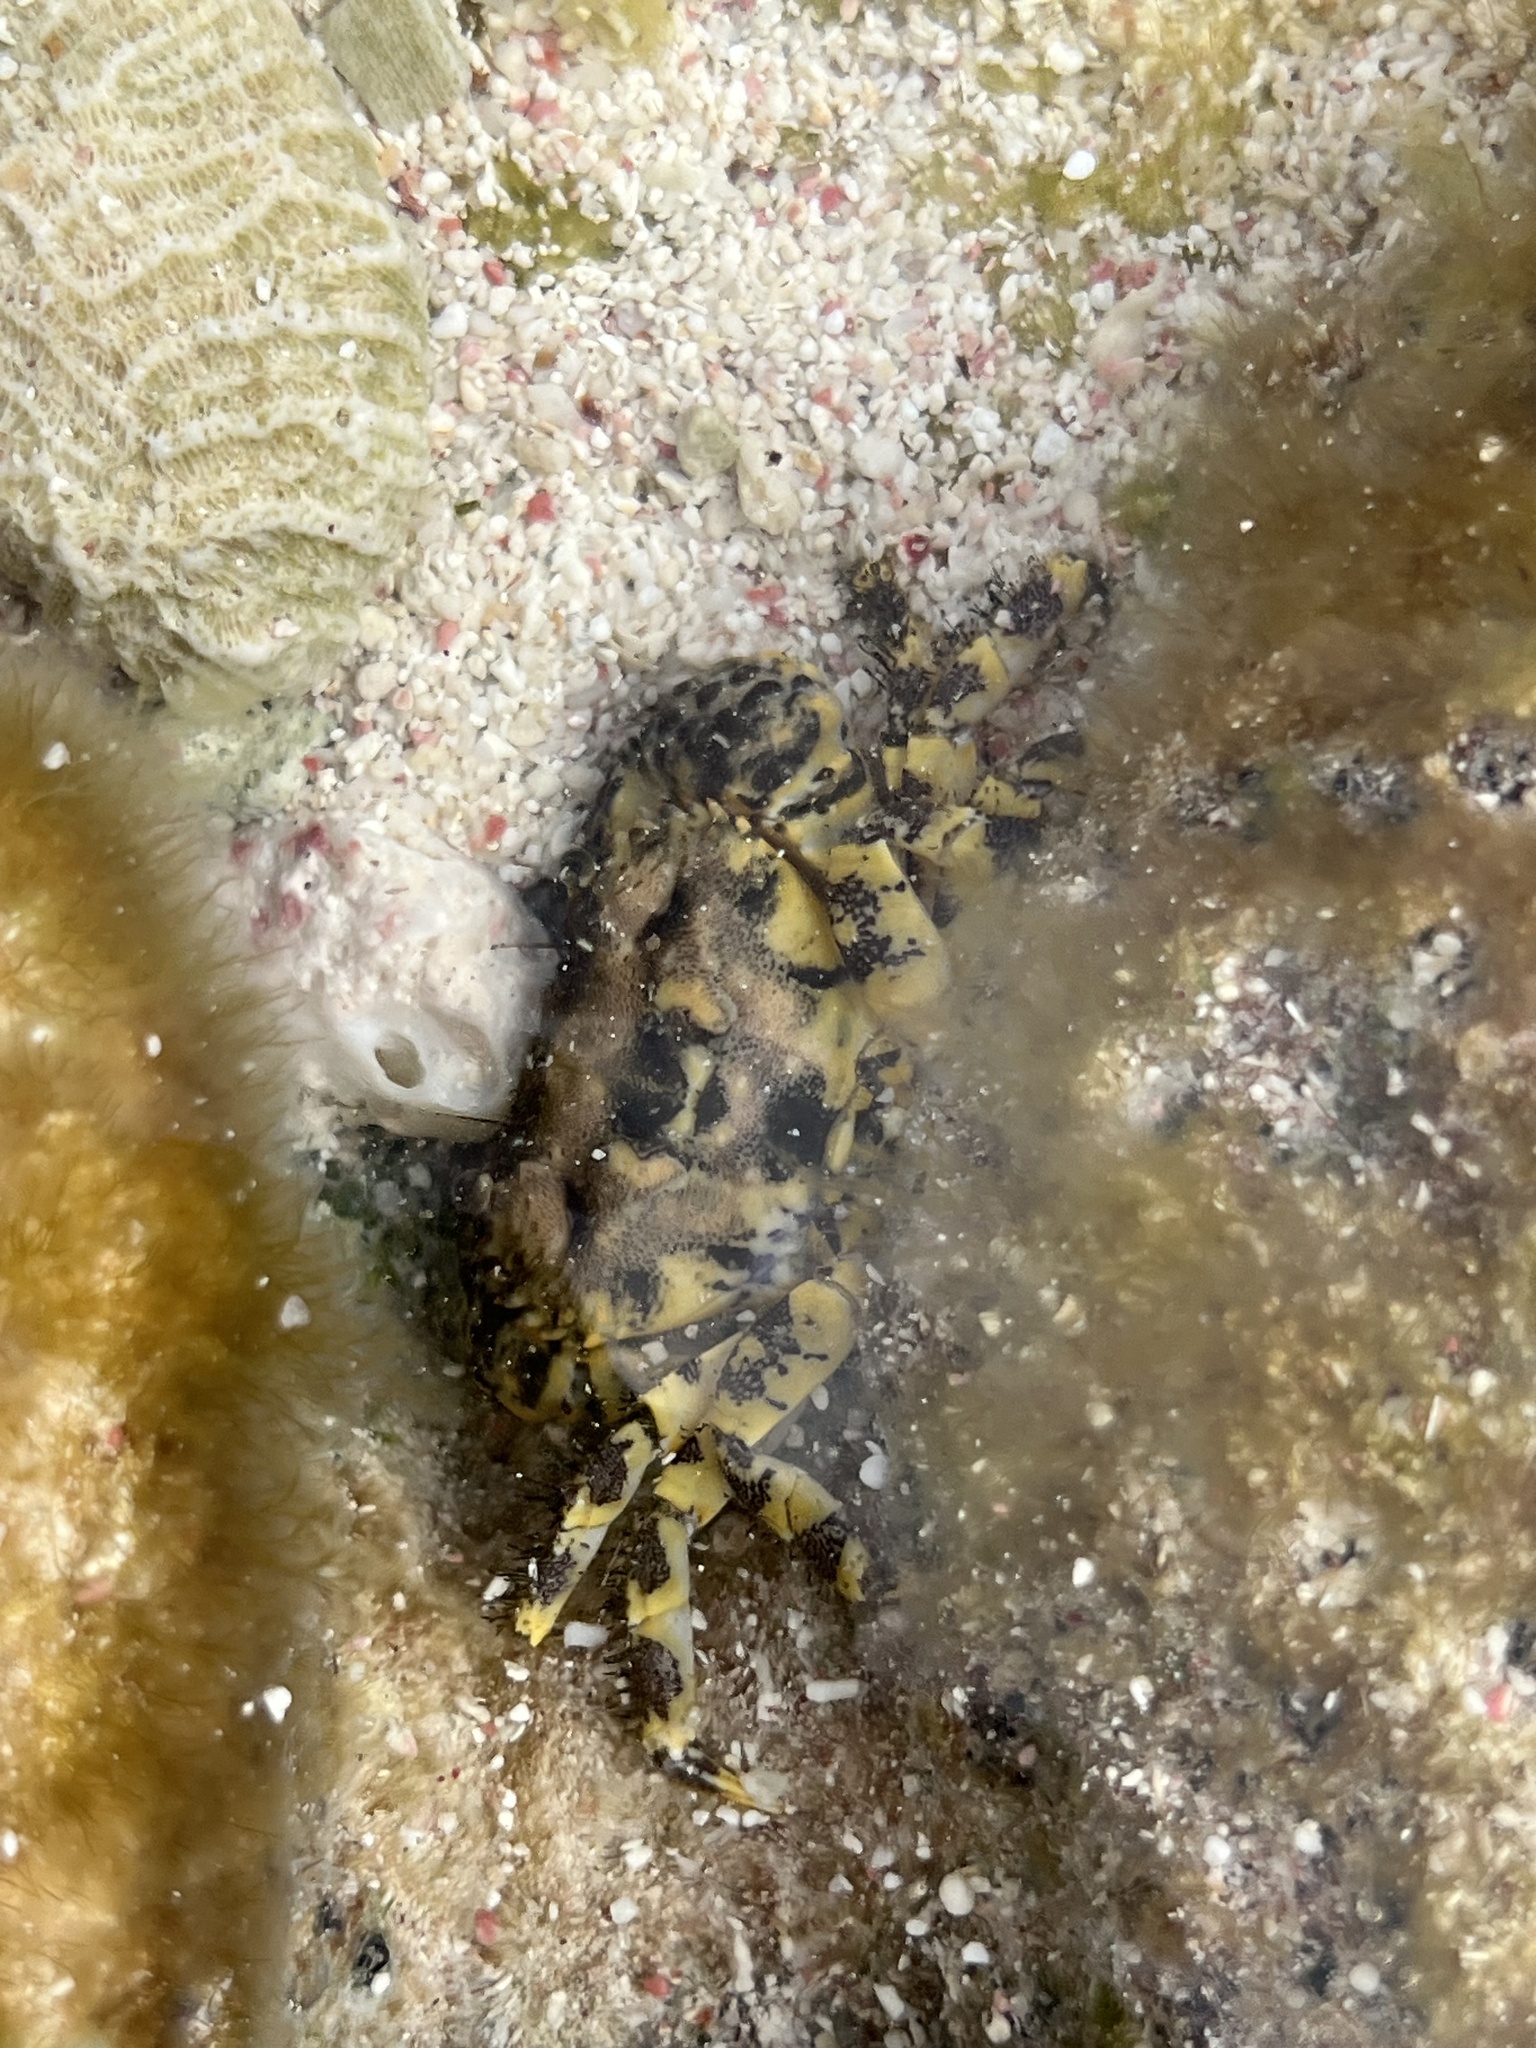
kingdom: Animalia
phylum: Arthropoda
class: Malacostraca
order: Decapoda
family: Eriphiidae
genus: Eriphia
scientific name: Eriphia gonagra
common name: Calico crab
